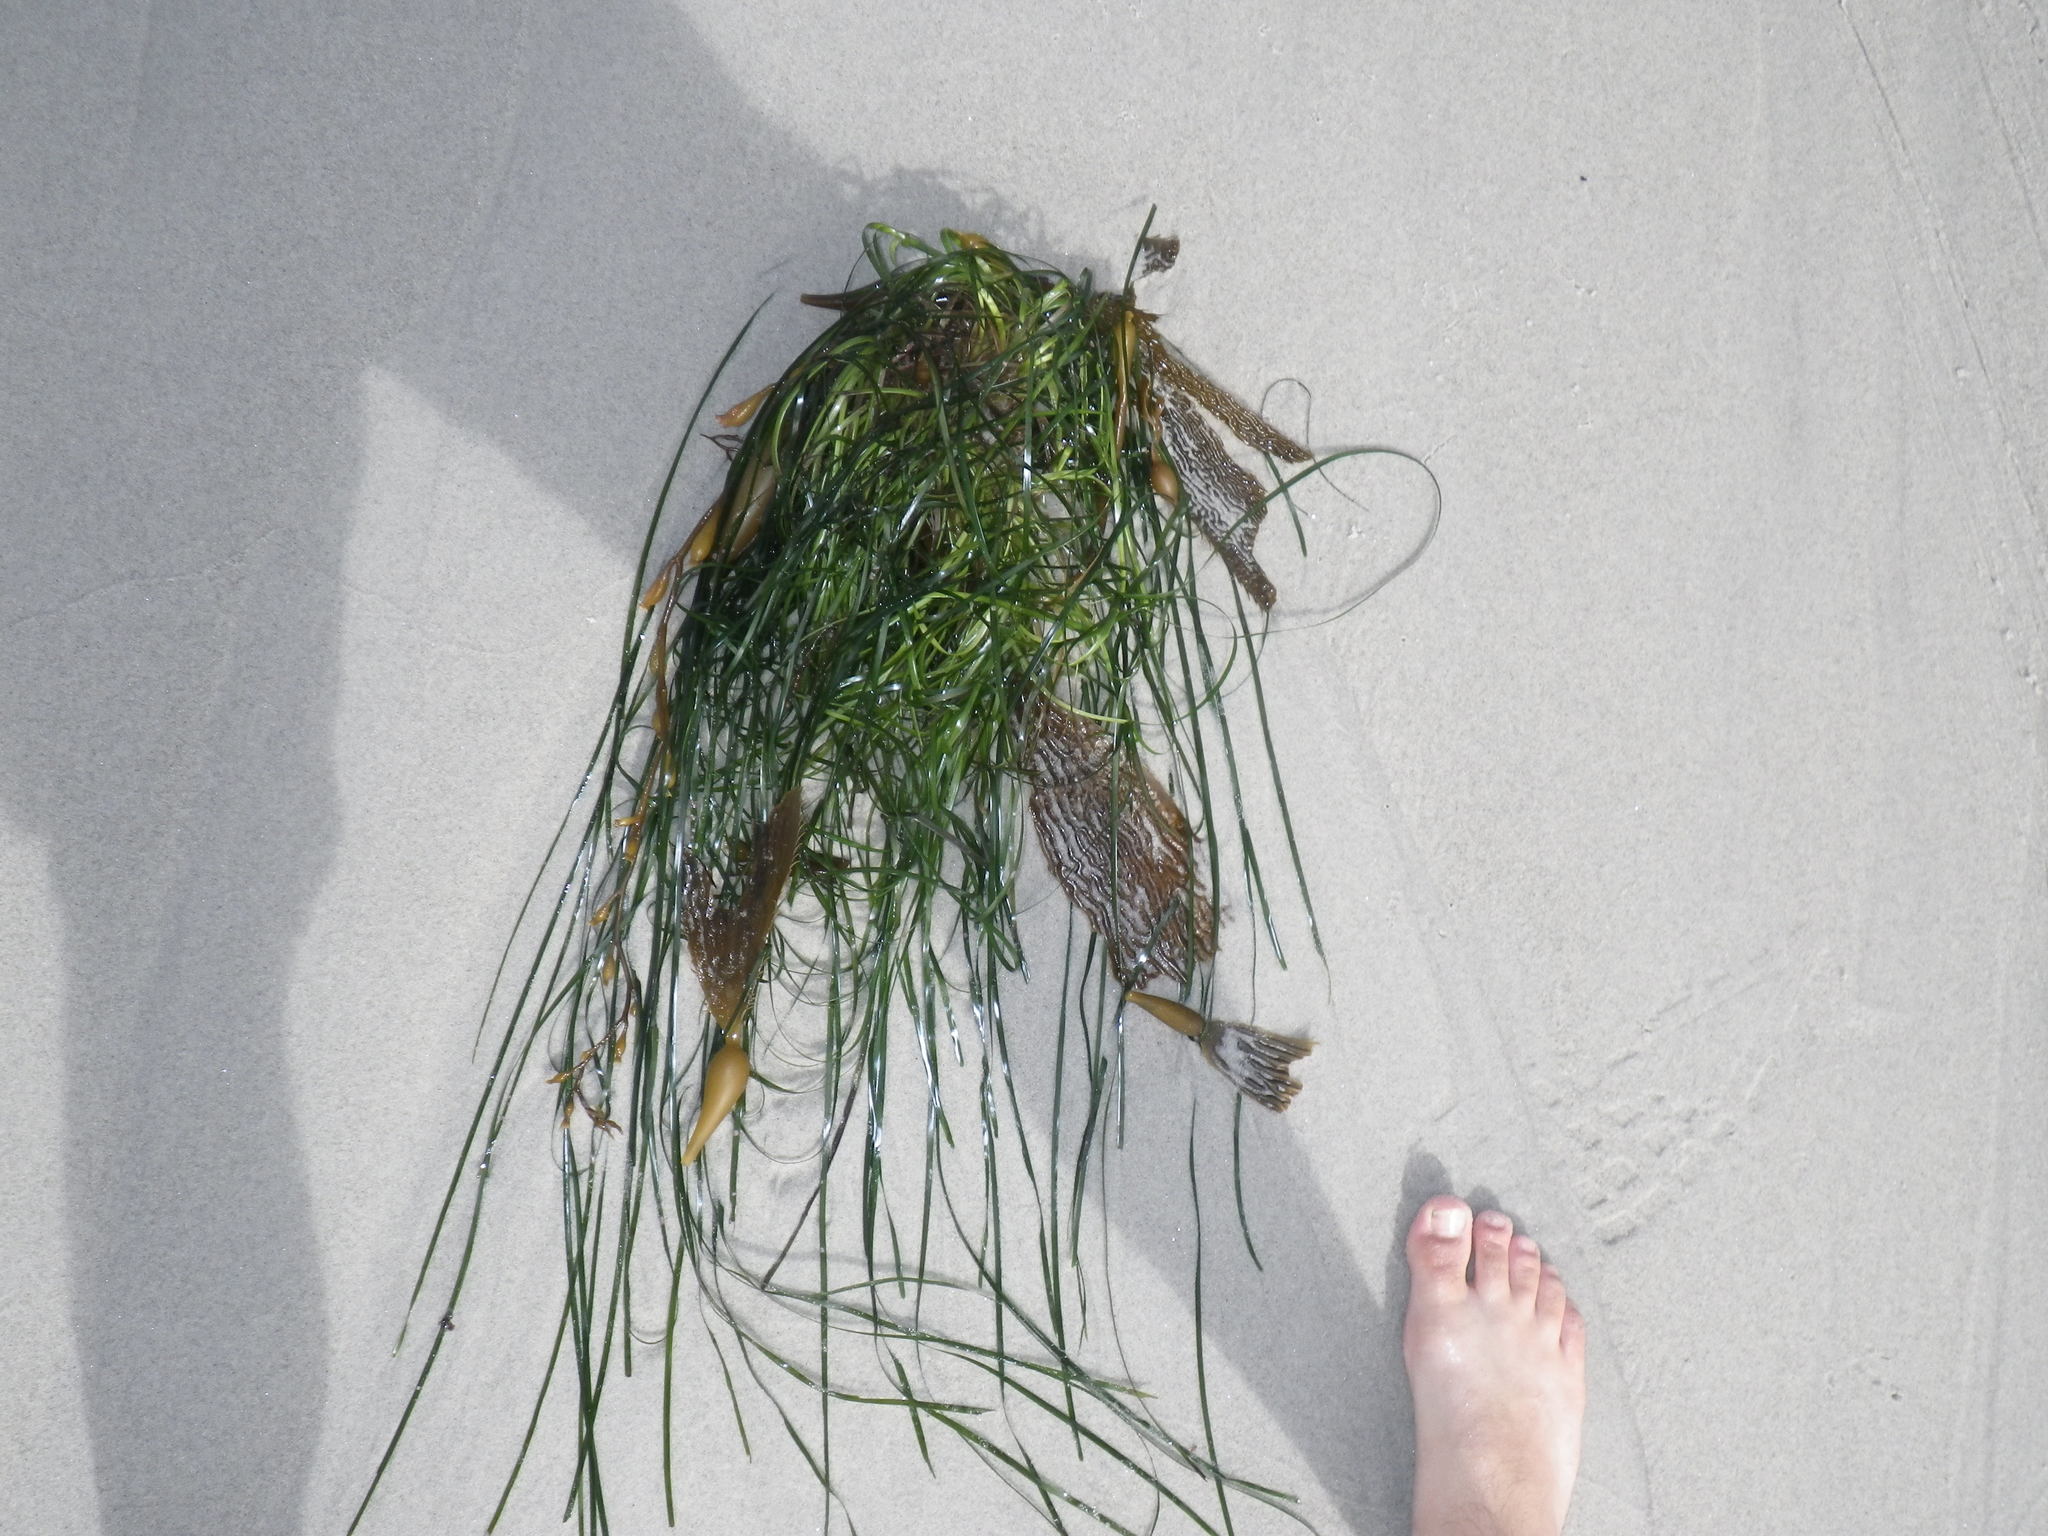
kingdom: Plantae
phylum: Tracheophyta
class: Liliopsida
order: Alismatales
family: Zosteraceae
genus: Phyllospadix
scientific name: Phyllospadix scouleri
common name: Species code: ps
